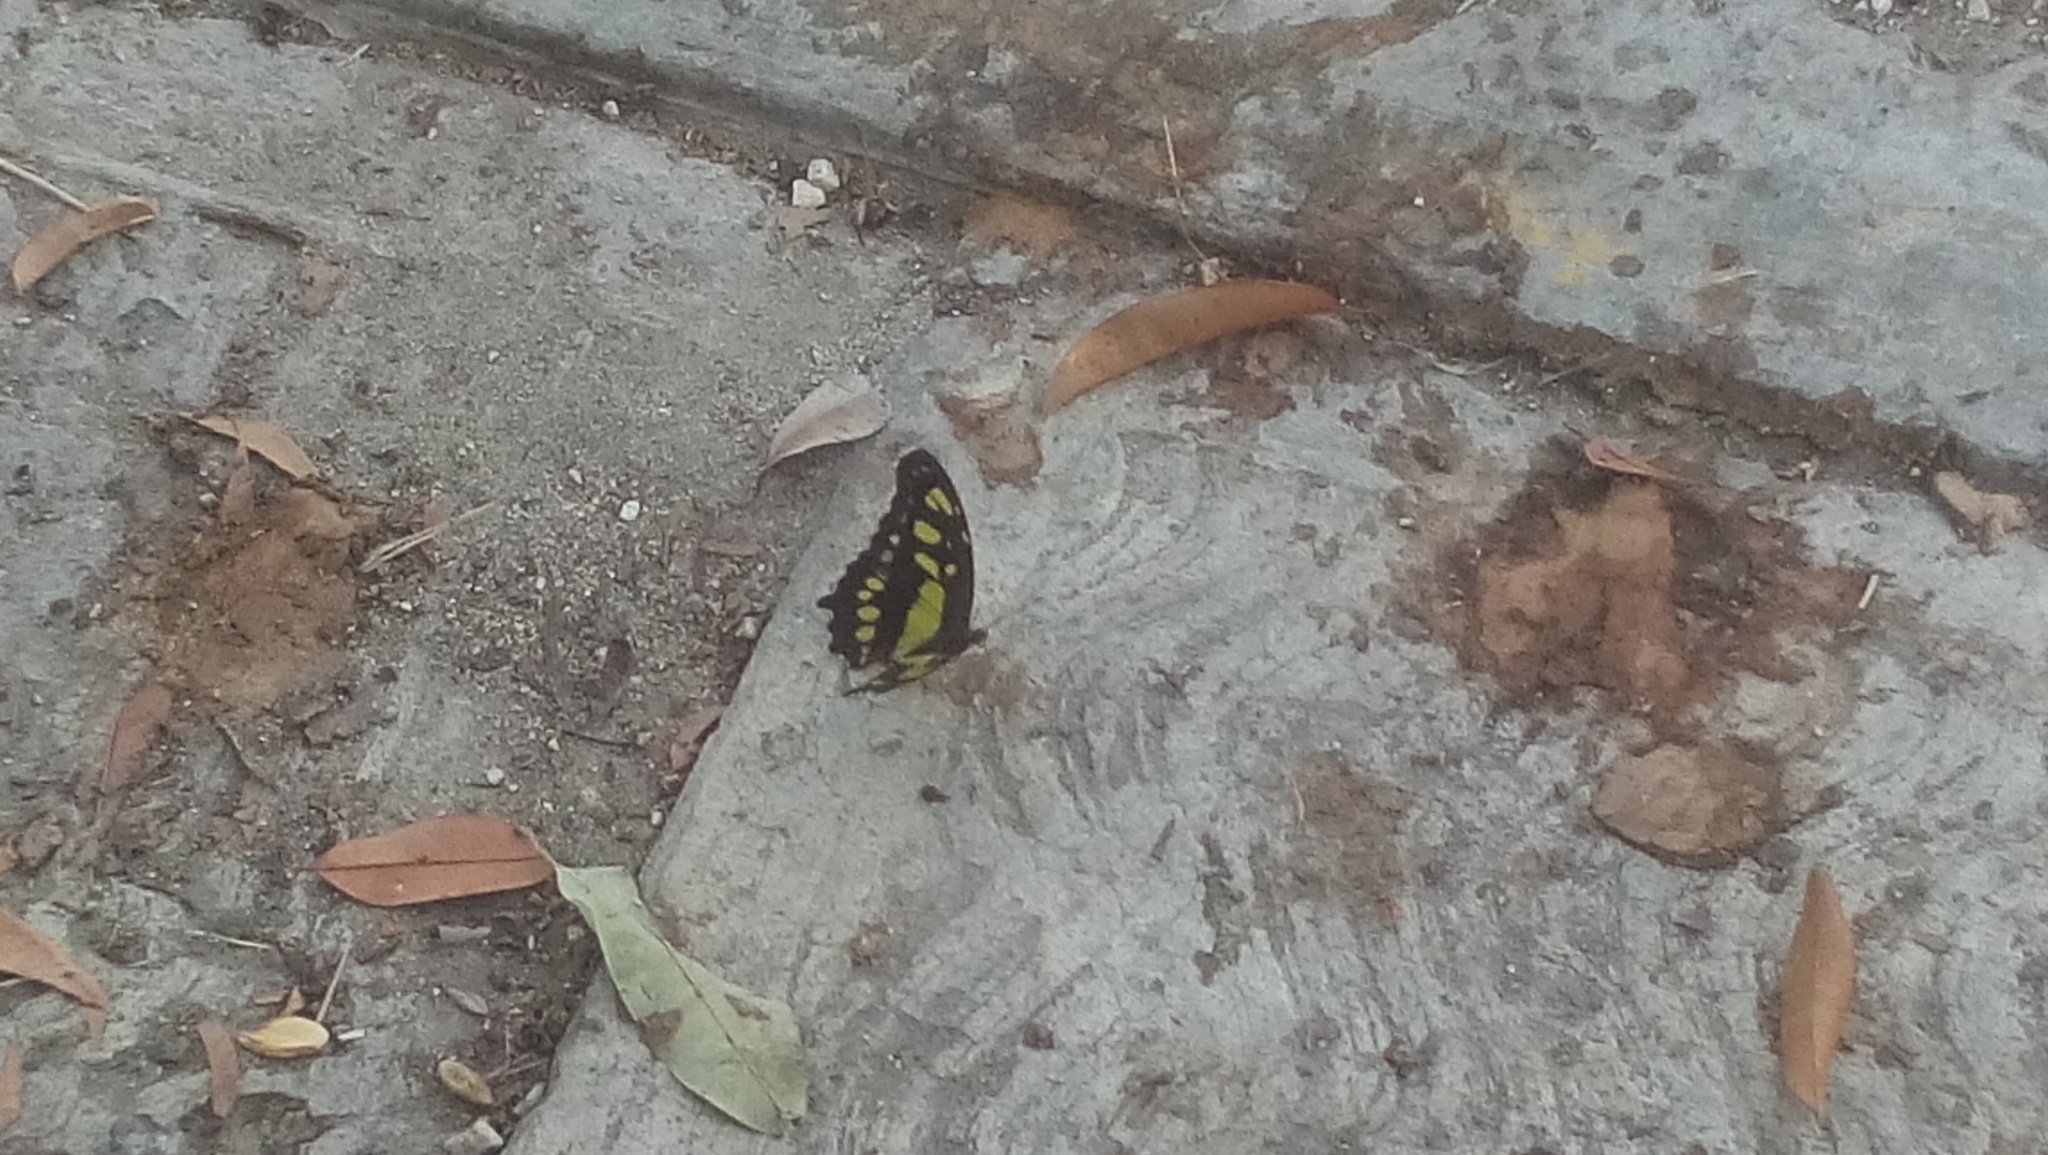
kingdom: Animalia
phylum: Arthropoda
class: Insecta
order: Lepidoptera
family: Nymphalidae
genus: Siproeta
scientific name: Siproeta stelenes
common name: Malachite
